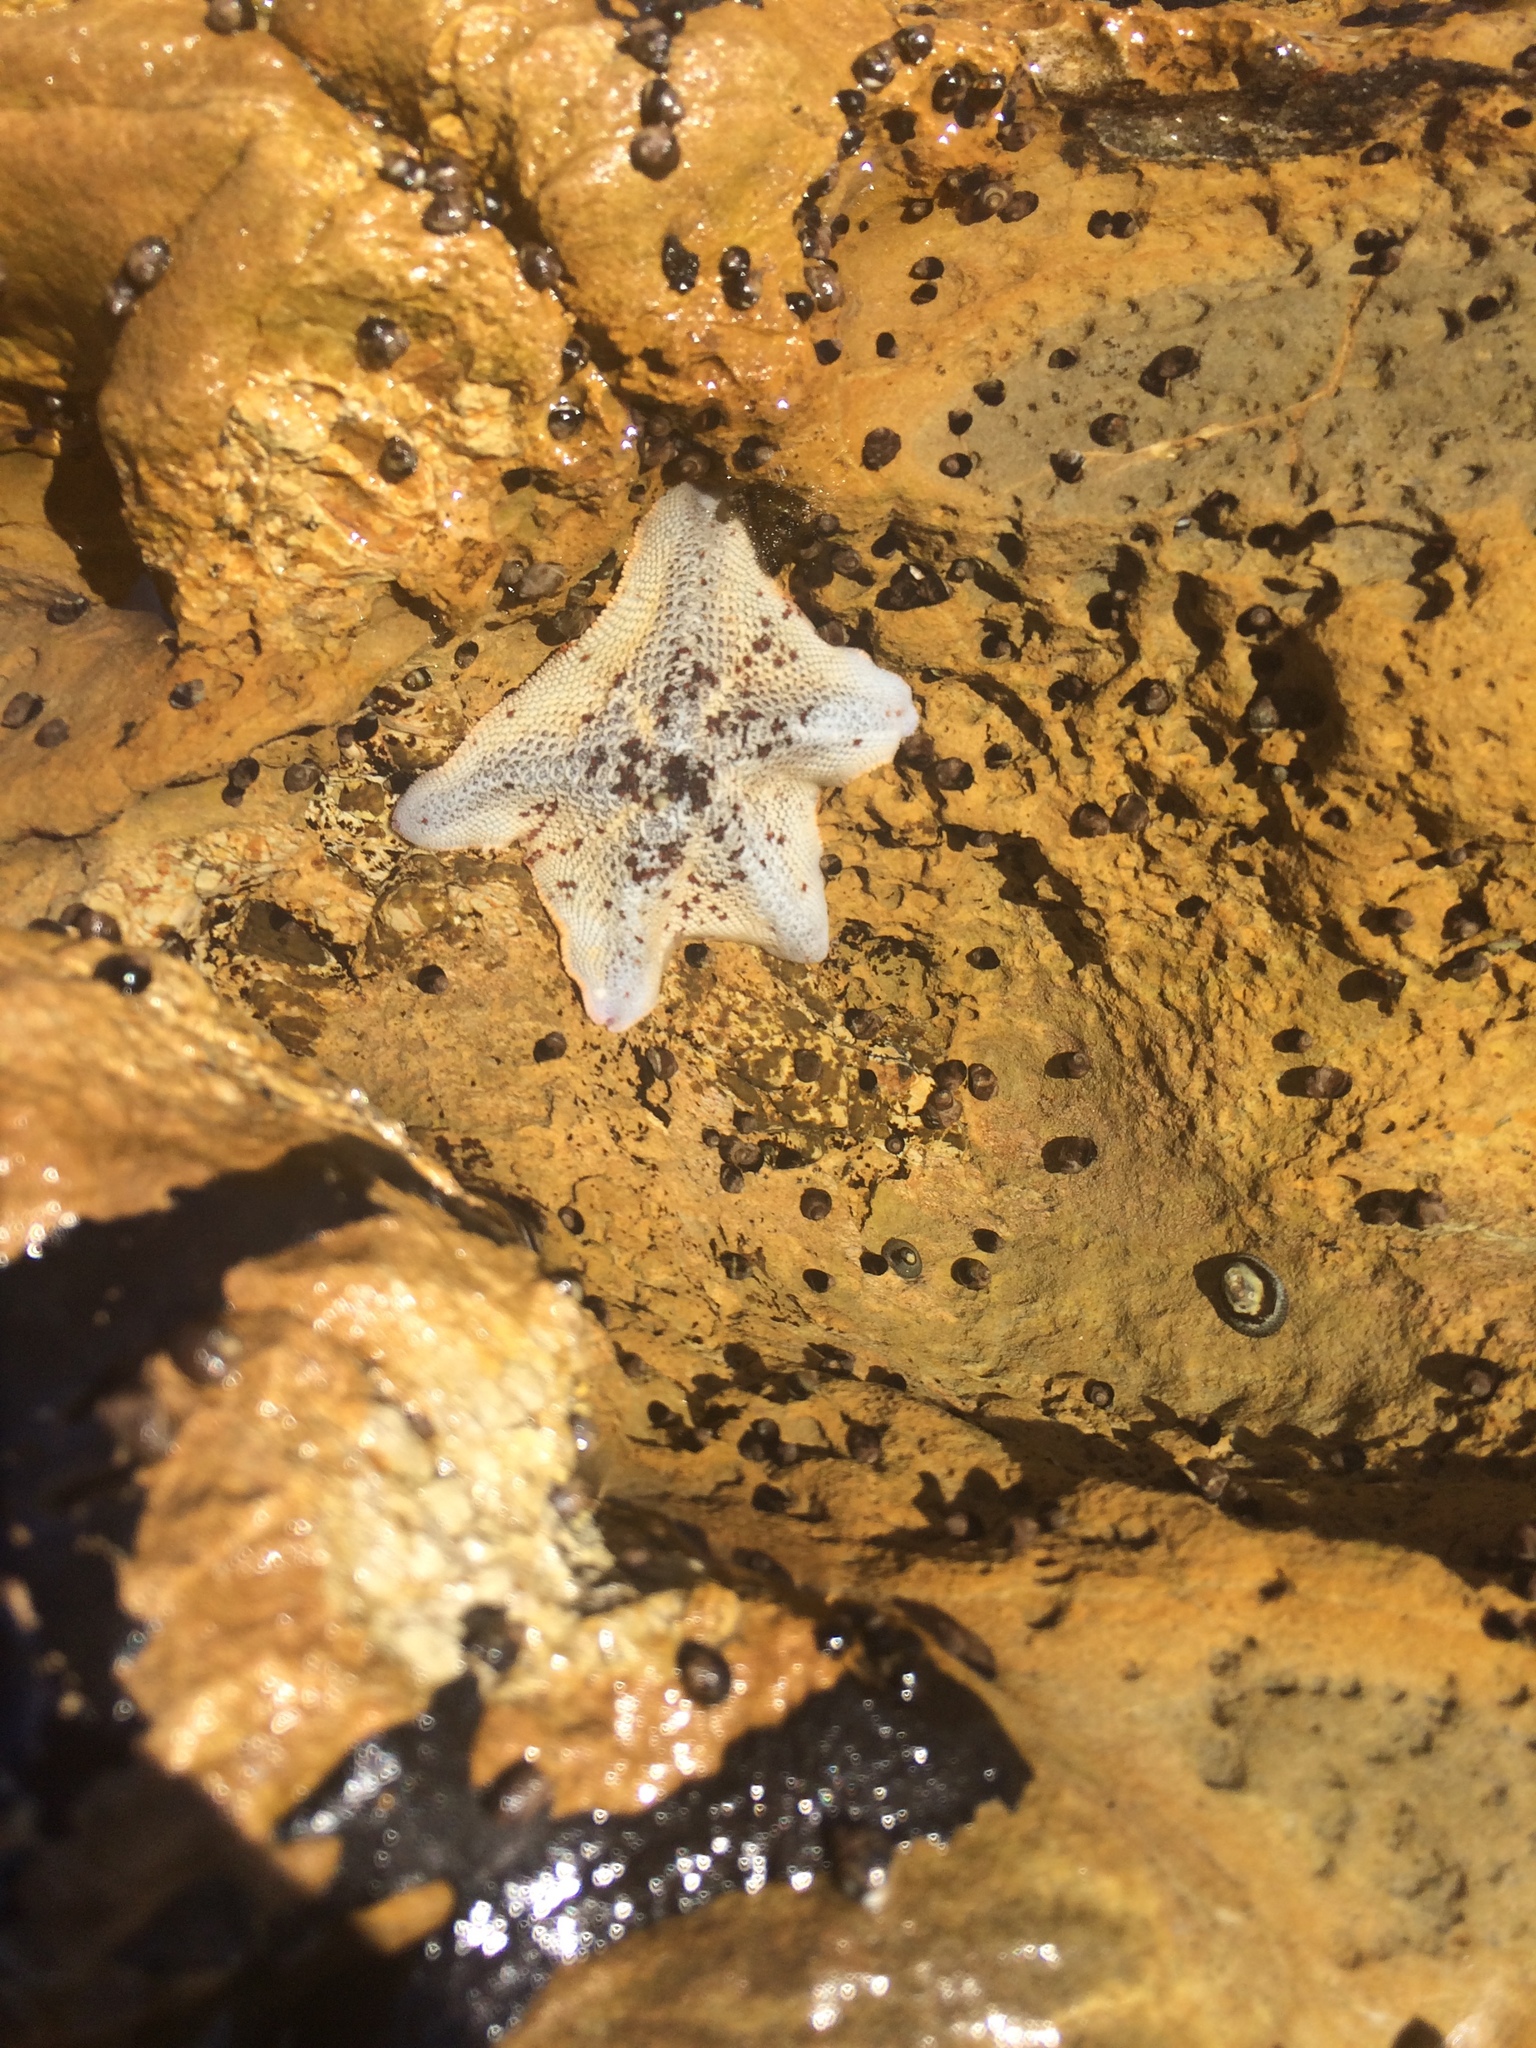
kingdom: Animalia
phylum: Echinodermata
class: Asteroidea
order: Valvatida
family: Asterinidae
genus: Patiria
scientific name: Patiria miniata
